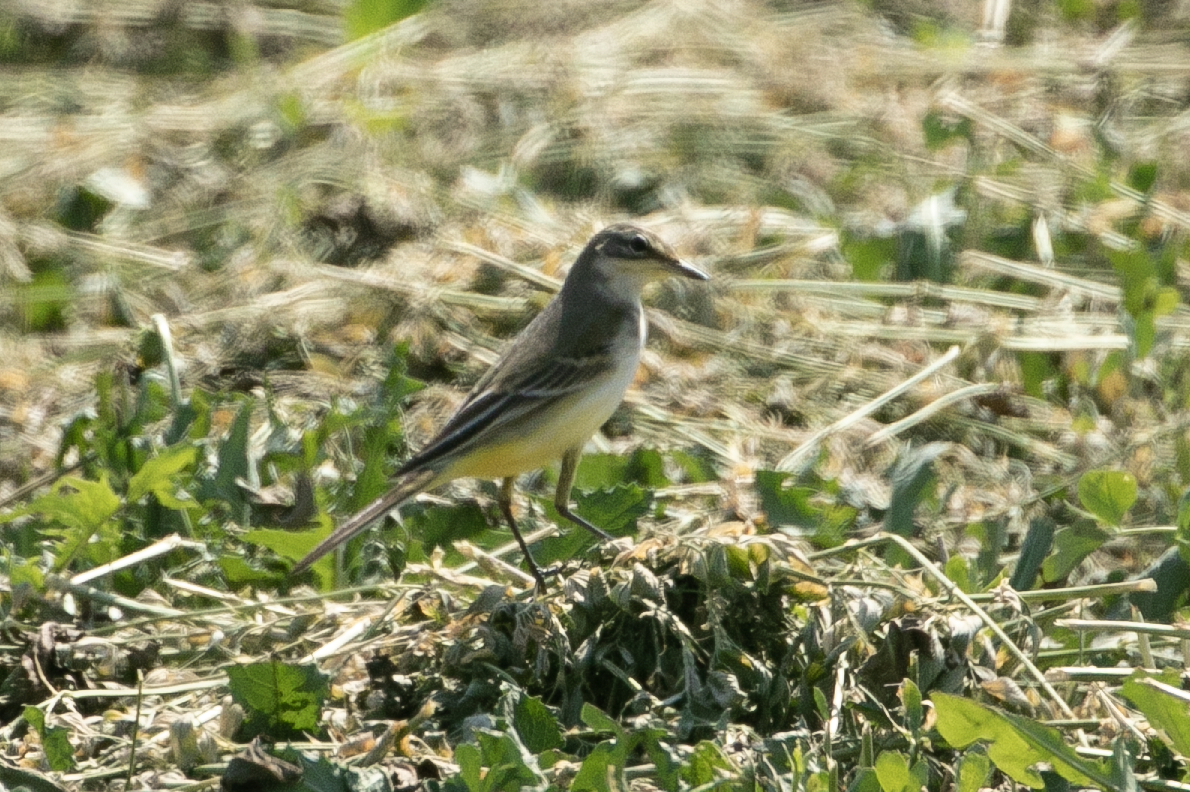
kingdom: Animalia
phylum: Chordata
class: Aves
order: Passeriformes
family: Motacillidae
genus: Motacilla
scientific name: Motacilla flava
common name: Western yellow wagtail
